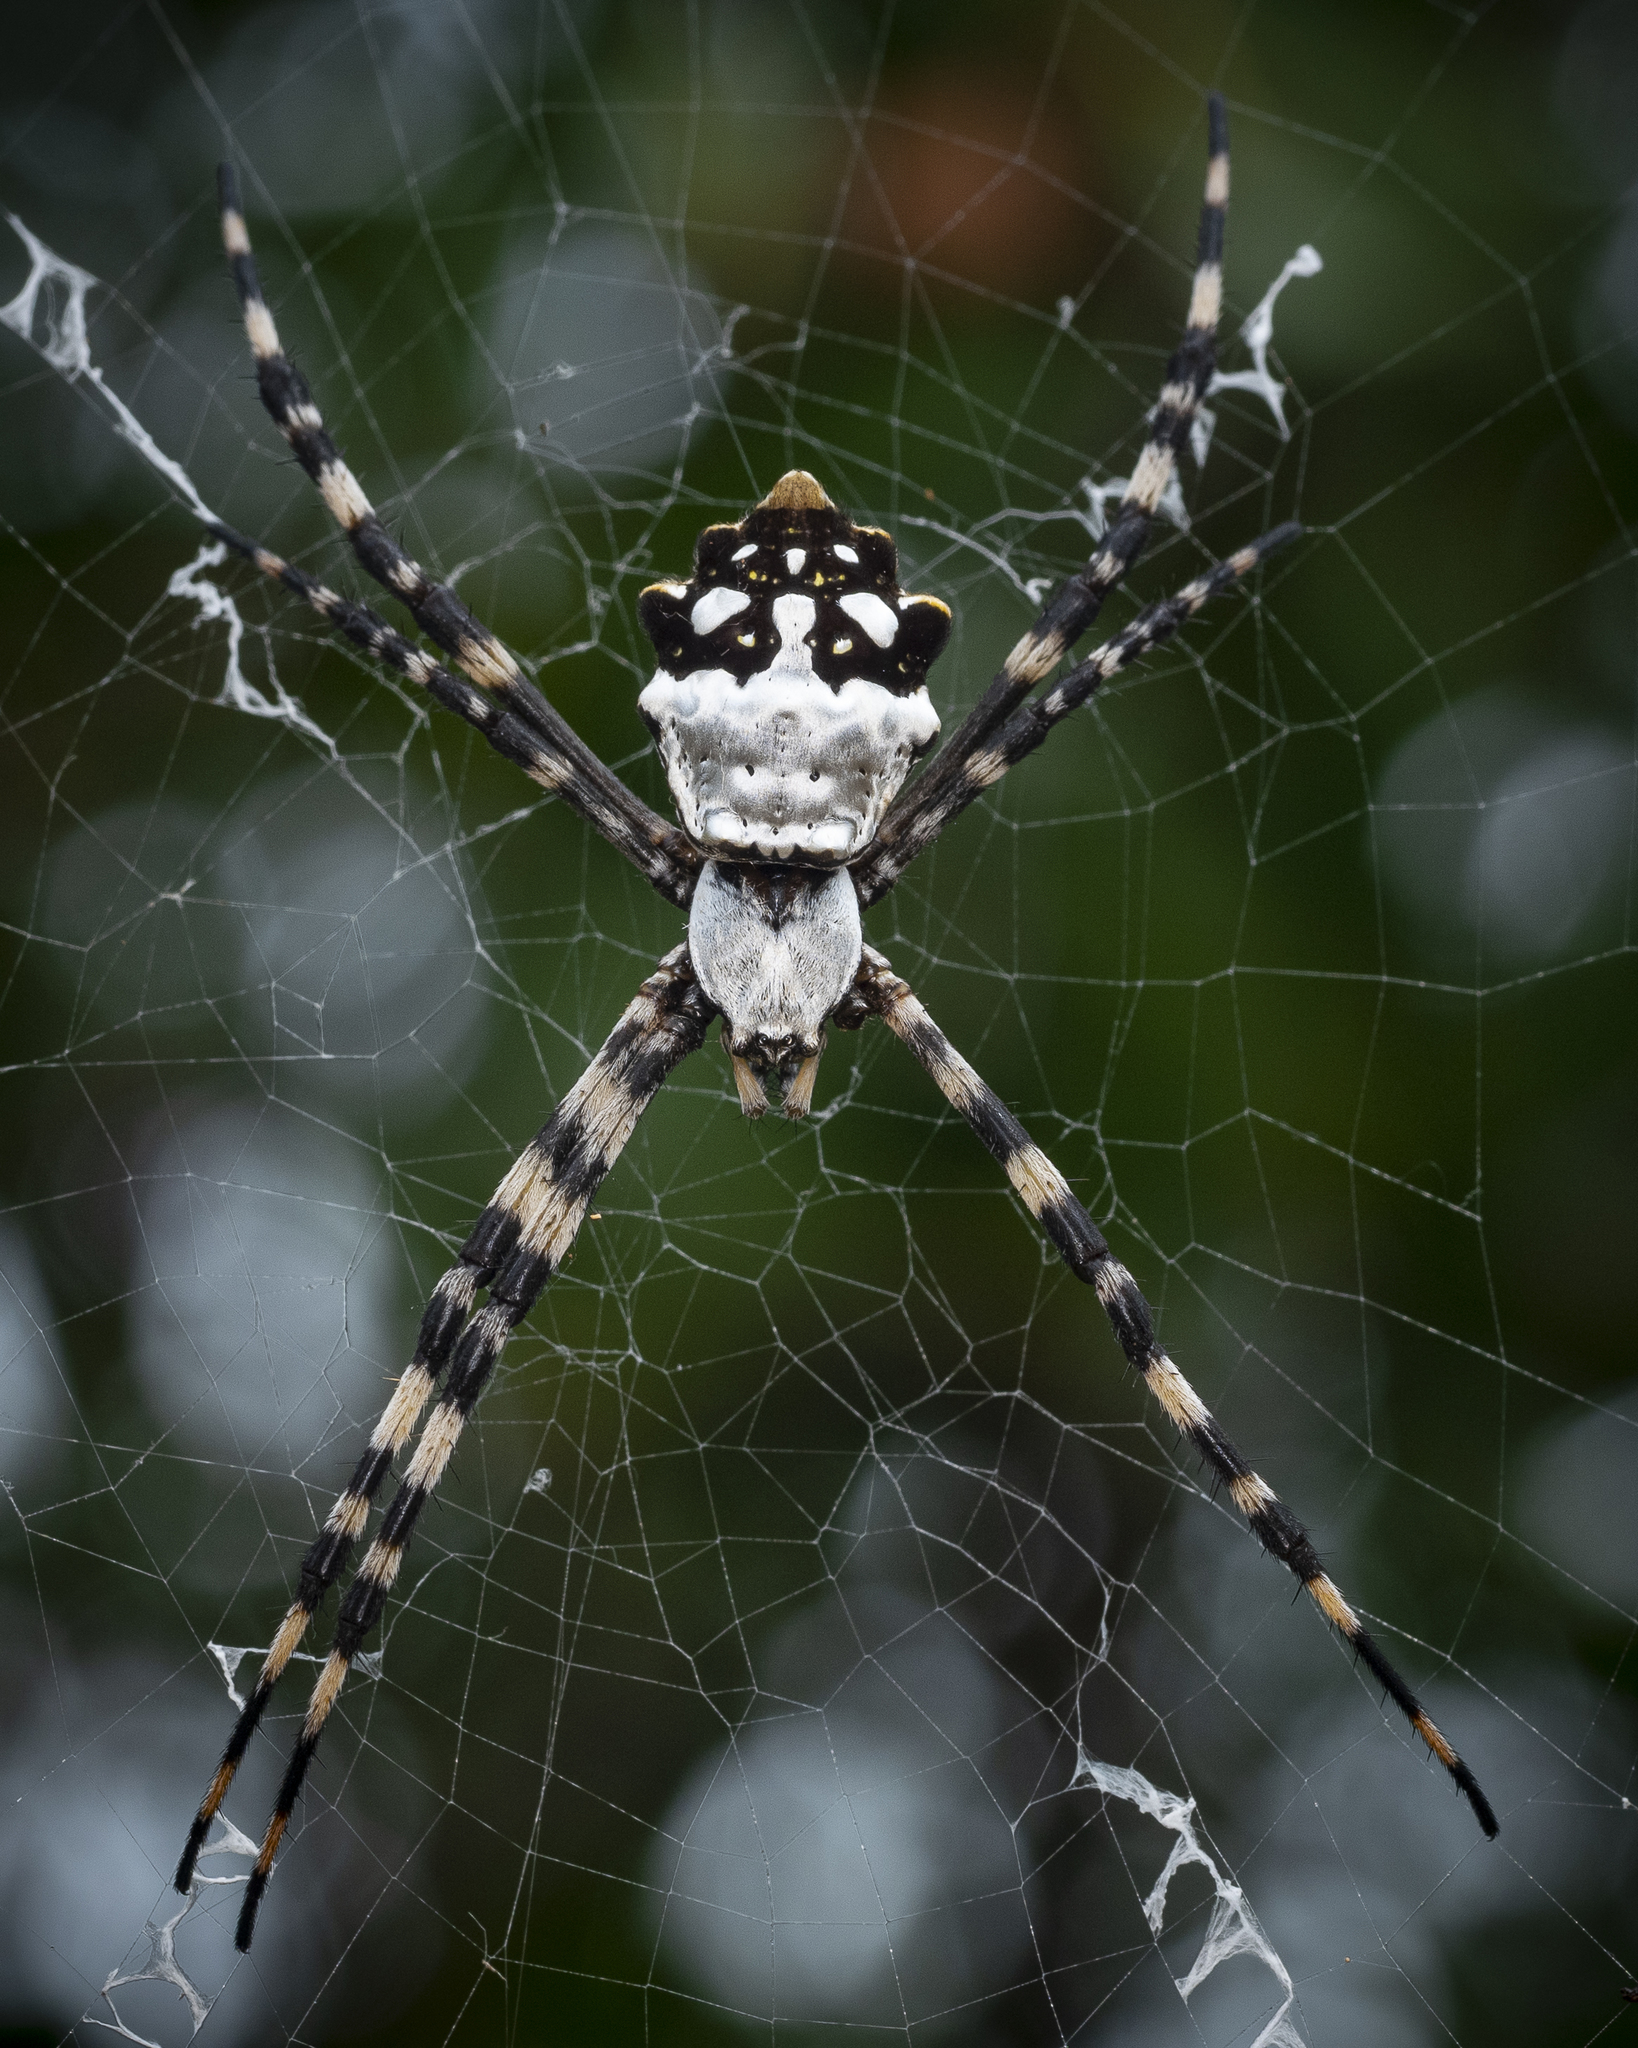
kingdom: Animalia
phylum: Arthropoda
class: Arachnida
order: Araneae
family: Araneidae
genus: Argiope
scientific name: Argiope argentata
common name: Orb weavers
